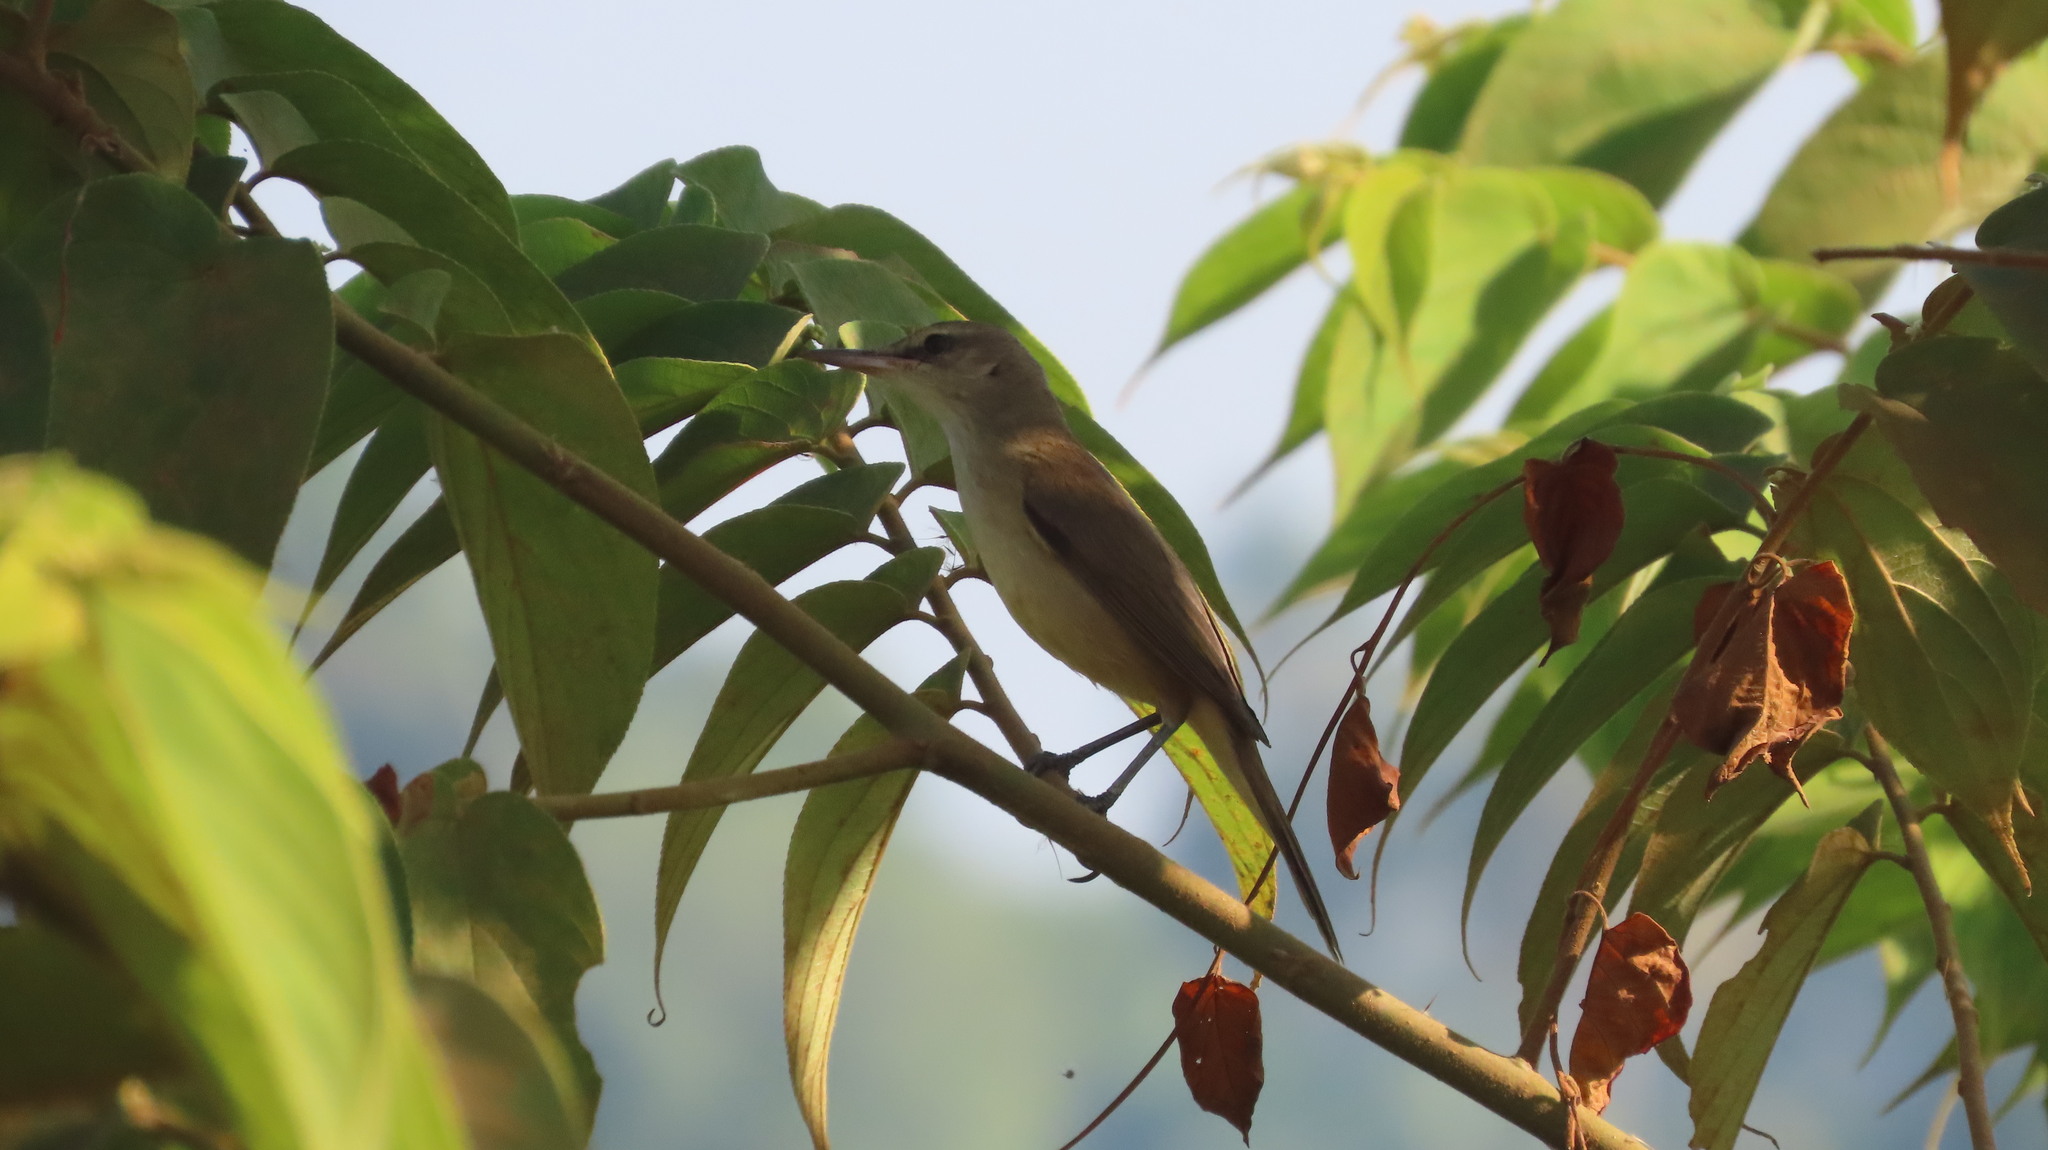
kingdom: Animalia
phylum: Chordata
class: Aves
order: Passeriformes
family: Acrocephalidae
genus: Acrocephalus
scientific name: Acrocephalus stentoreus
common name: Clamorous reed warbler
